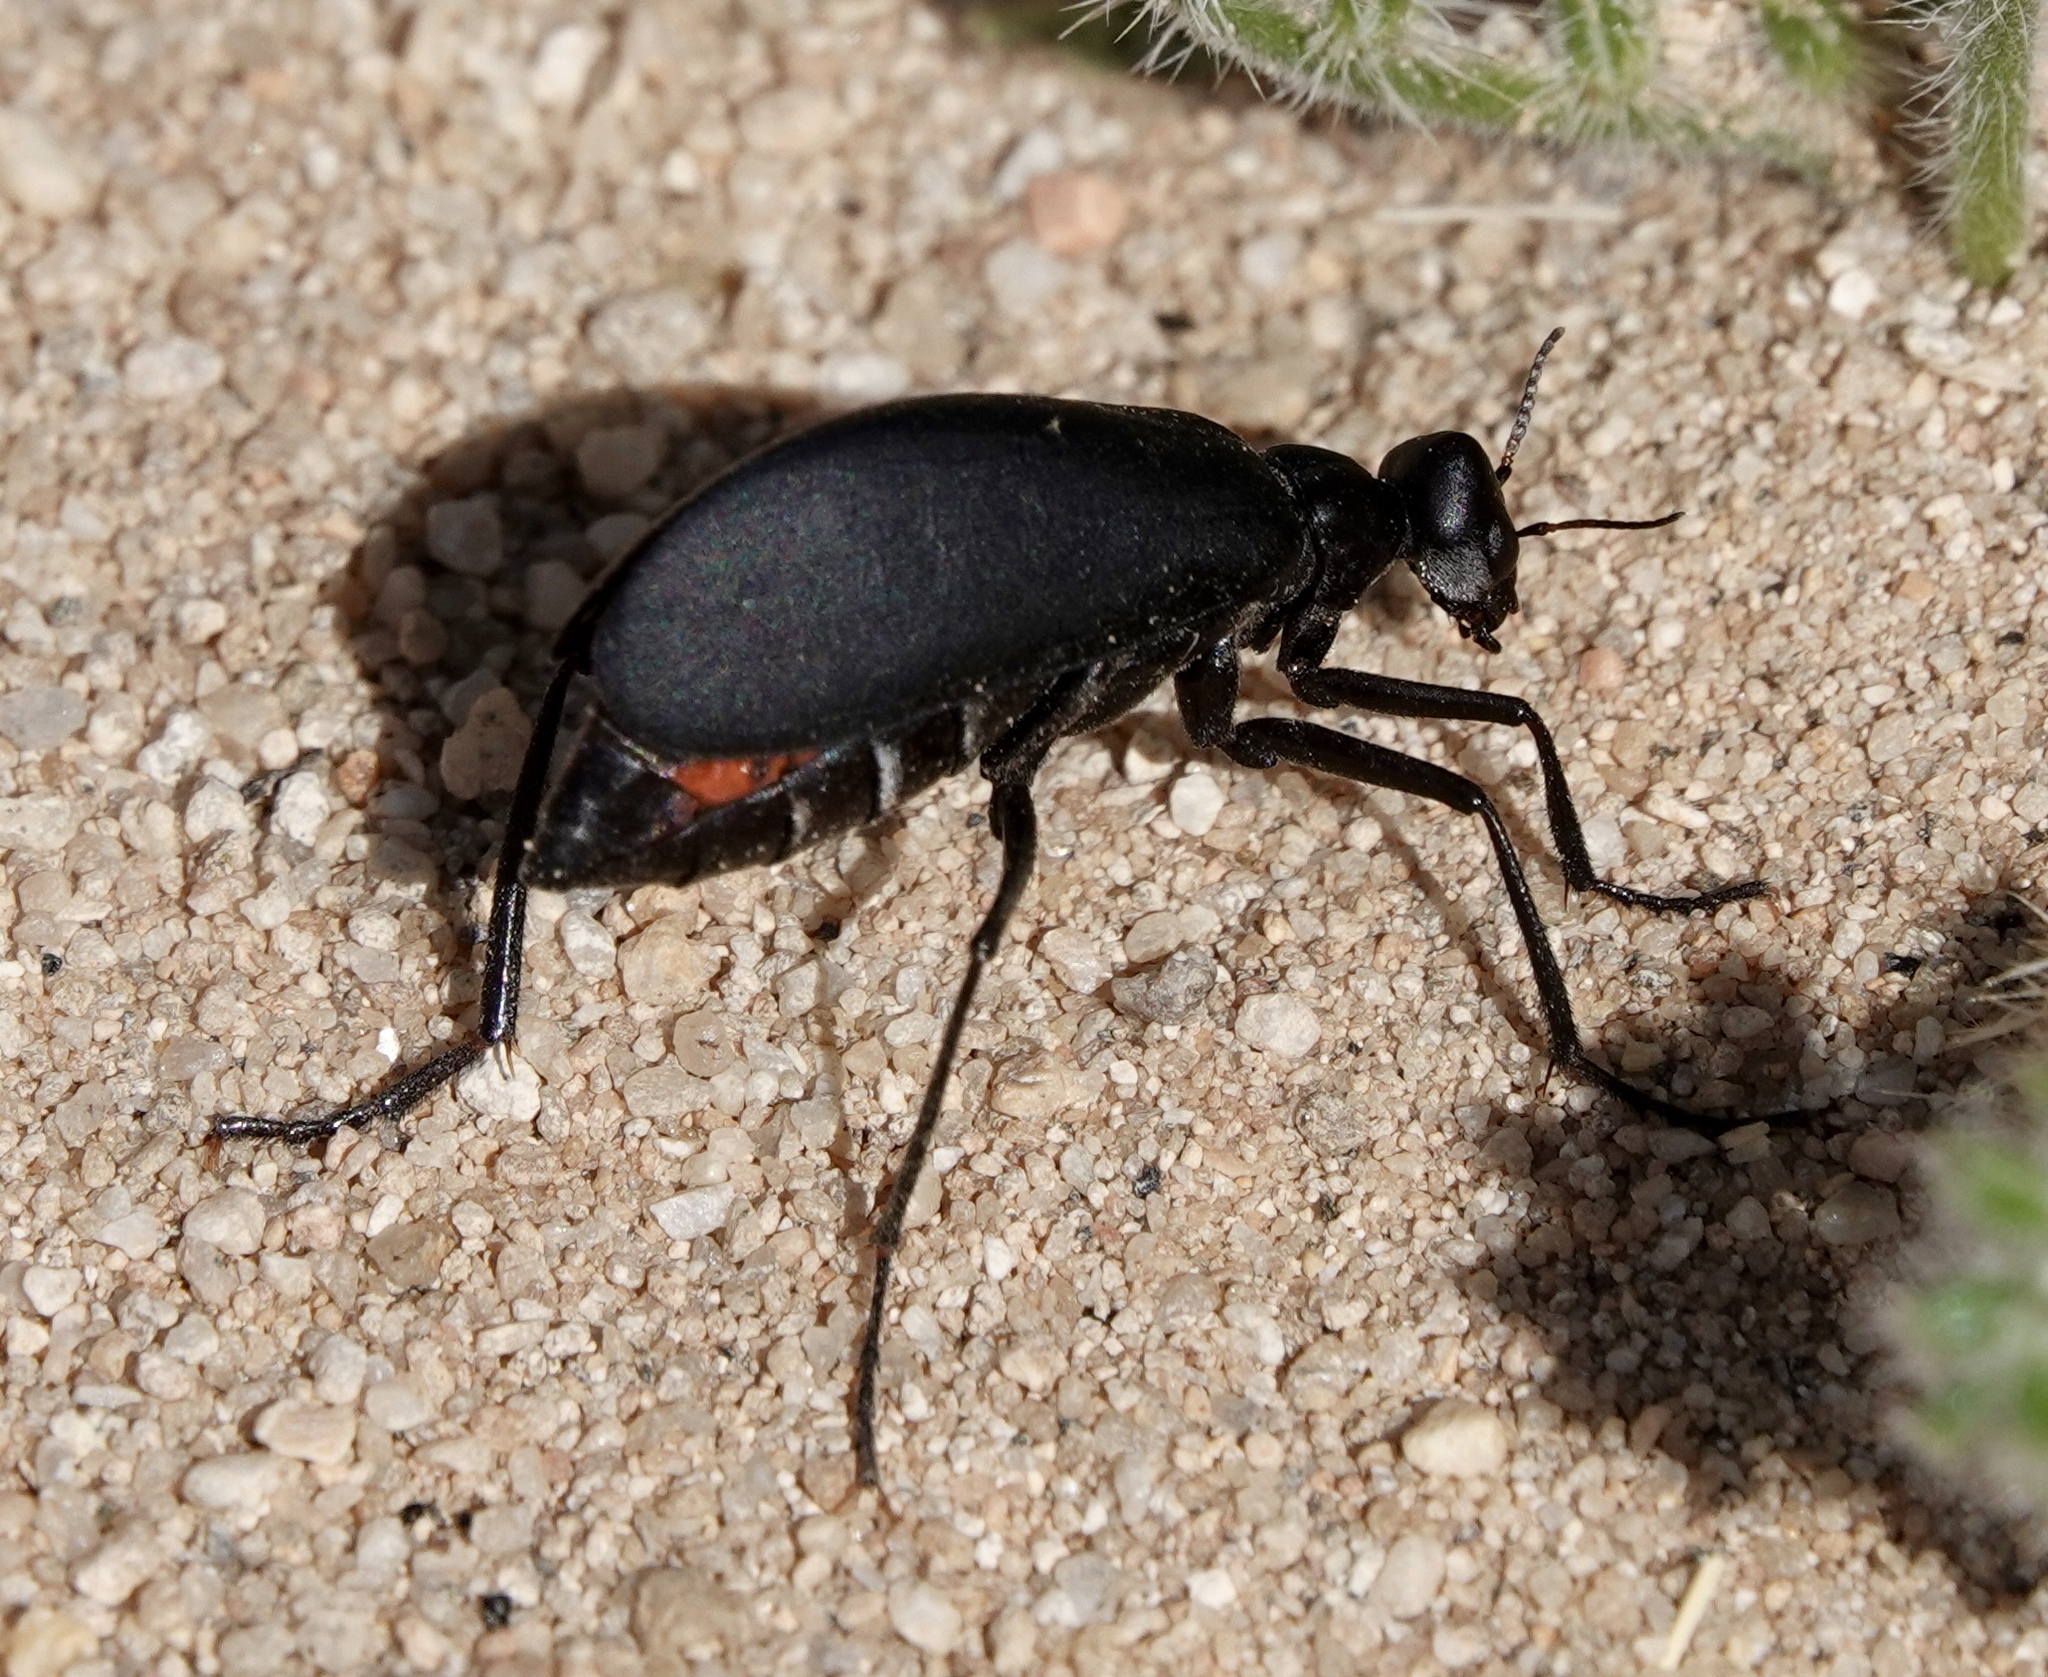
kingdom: Animalia
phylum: Arthropoda
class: Insecta
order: Coleoptera
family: Meloidae
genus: Phodaga
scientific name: Phodaga alticeps
